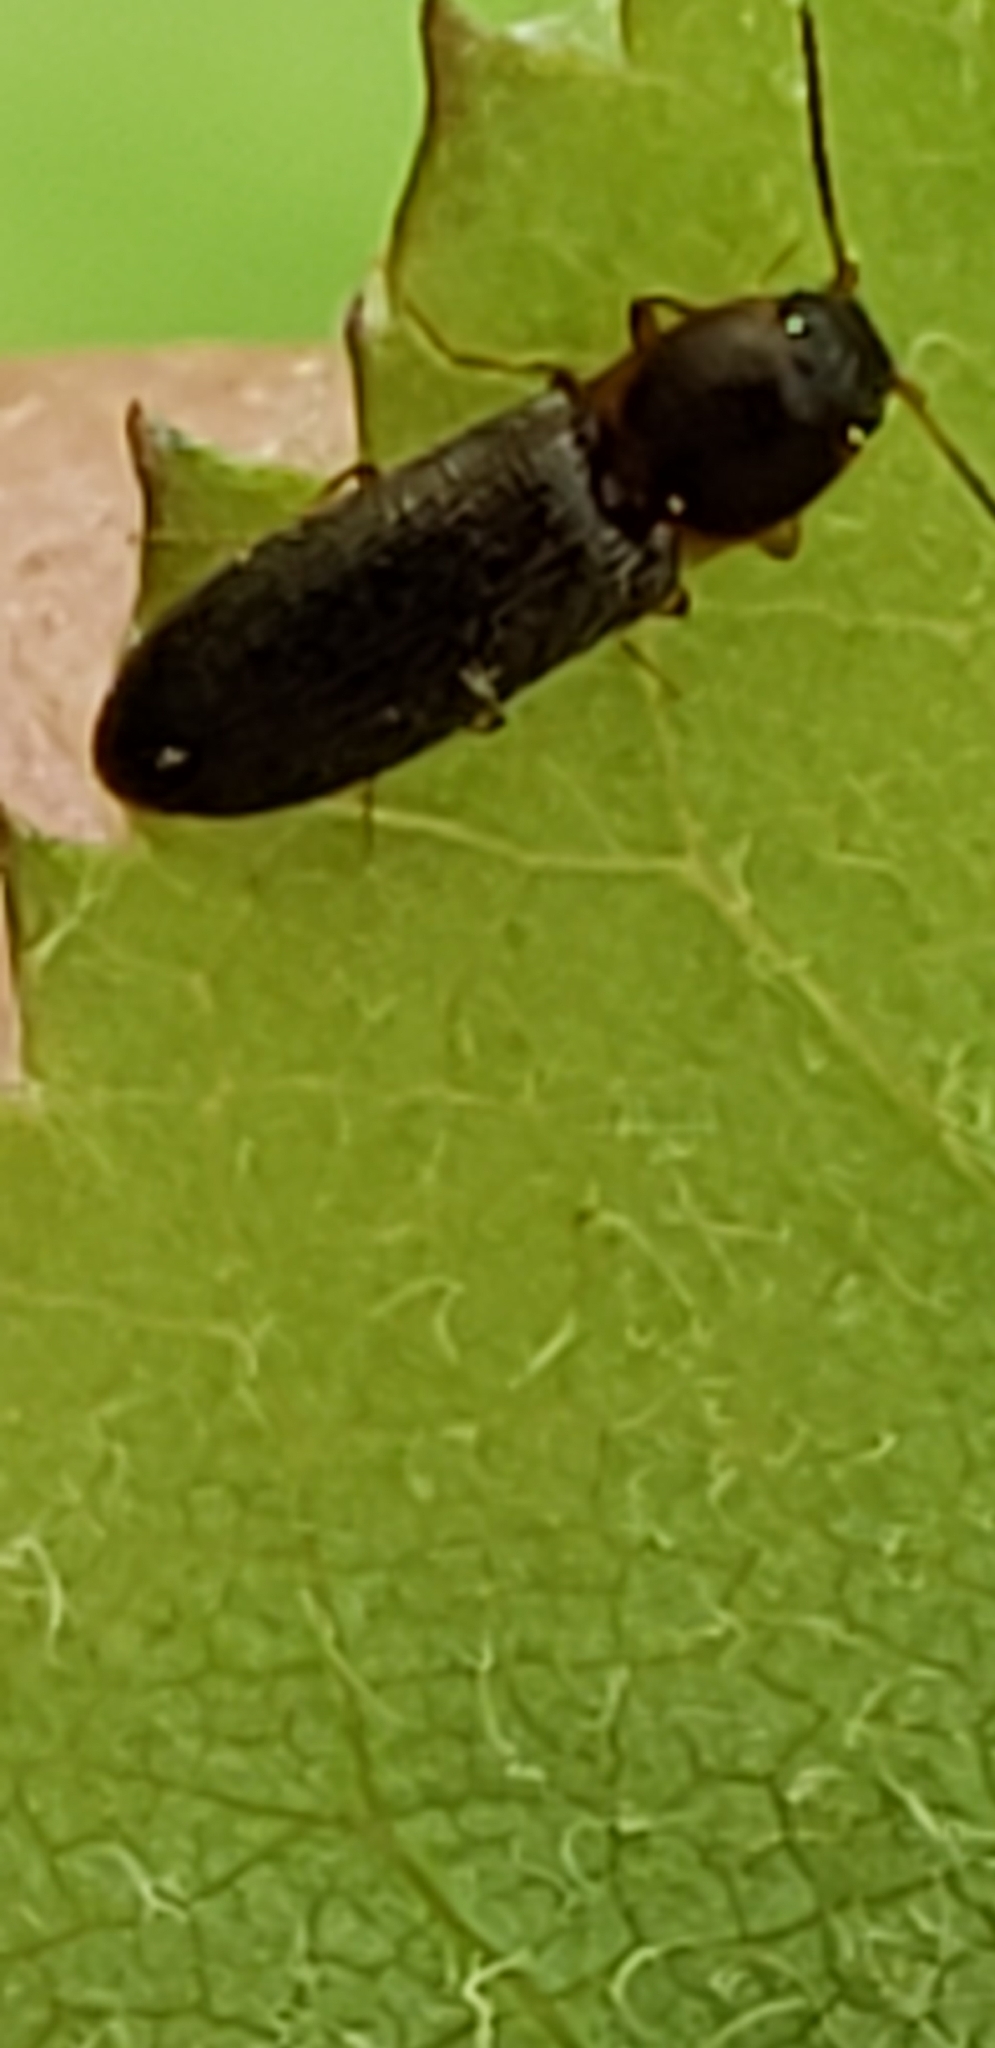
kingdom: Animalia
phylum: Arthropoda
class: Insecta
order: Coleoptera
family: Elateridae
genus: Tetralimonius
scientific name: Tetralimonius
